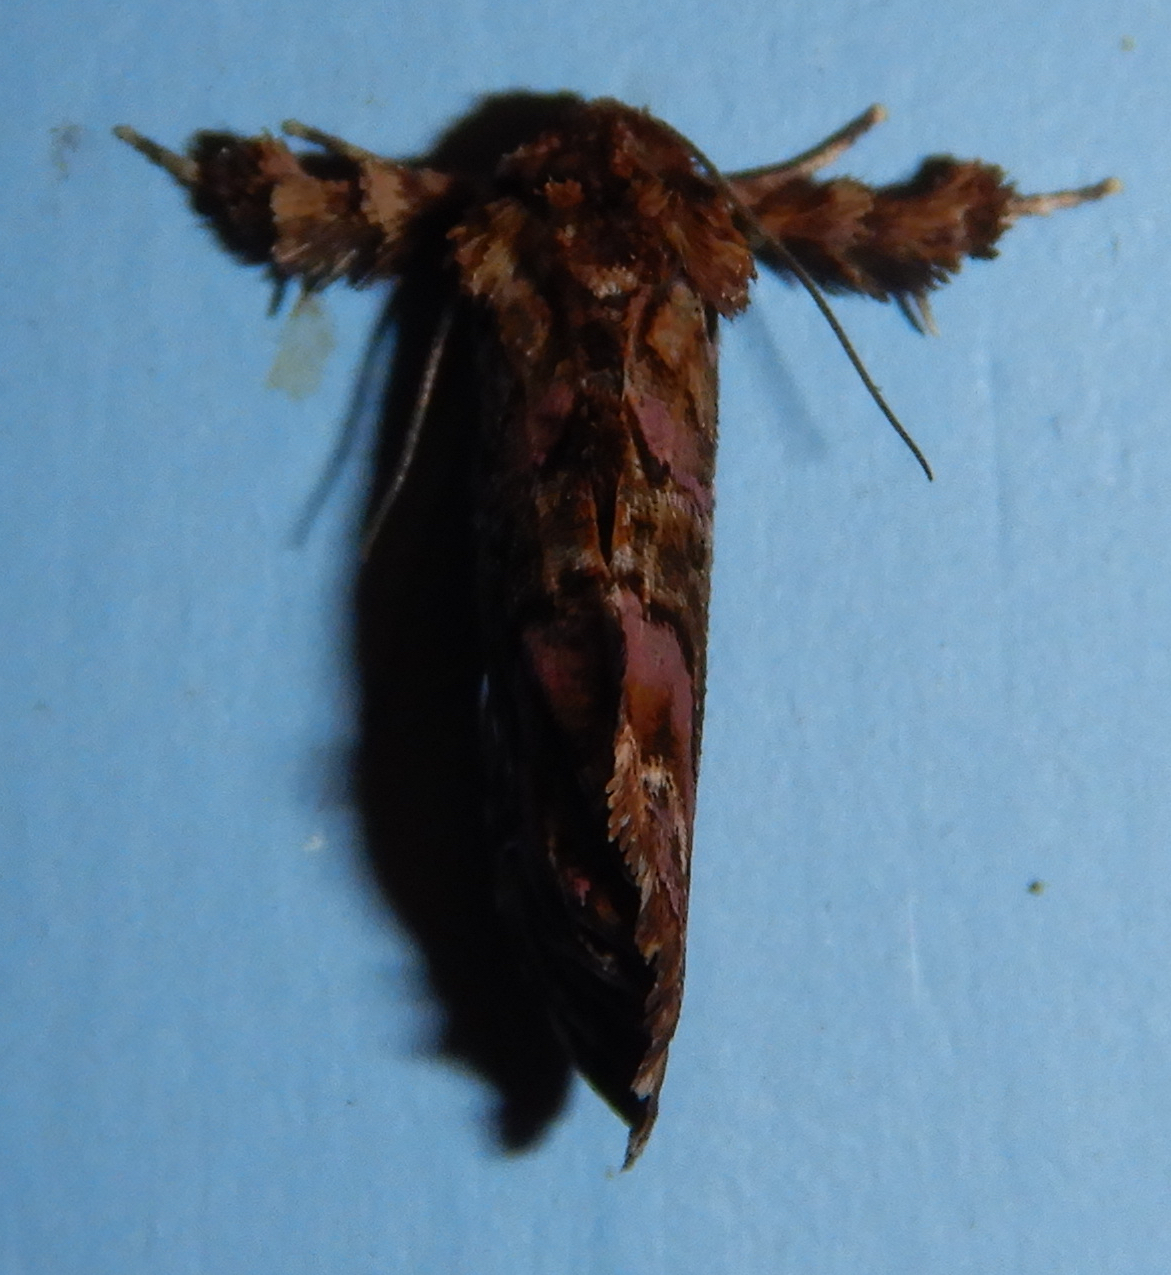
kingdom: Animalia
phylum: Arthropoda
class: Insecta
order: Lepidoptera
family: Noctuidae
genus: Callopistria
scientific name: Callopistria mollissima
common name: Pink-shaded fern moth
